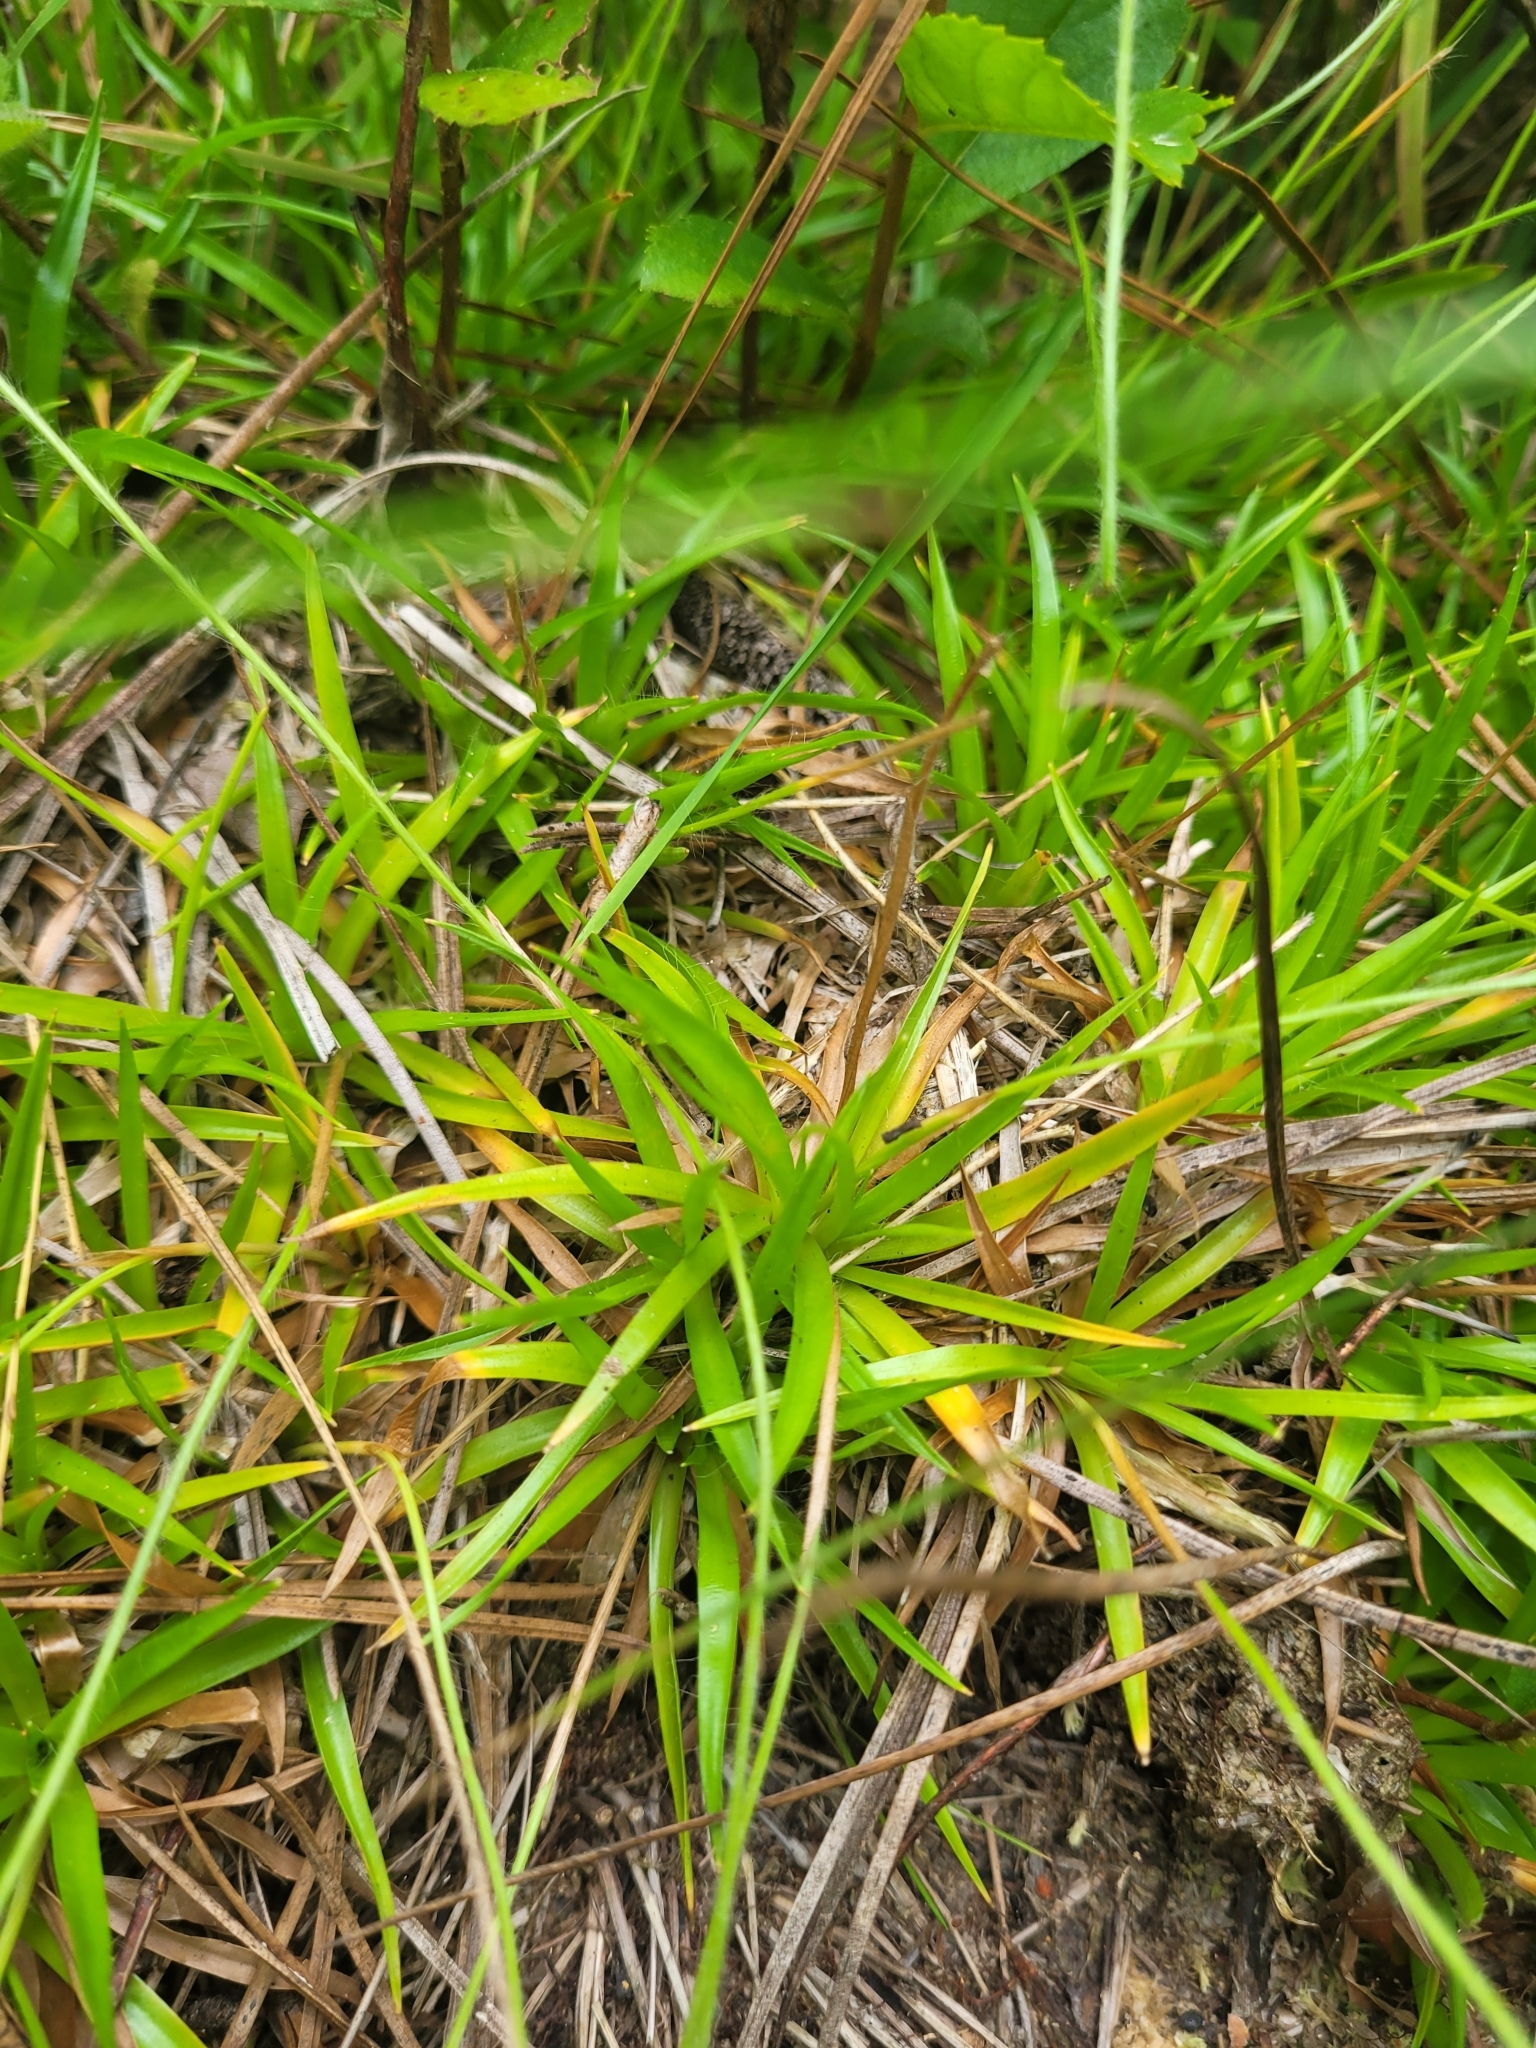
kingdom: Plantae
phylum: Tracheophyta
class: Liliopsida
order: Poales
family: Eriocaulaceae
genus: Paepalanthus
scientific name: Paepalanthus anceps
